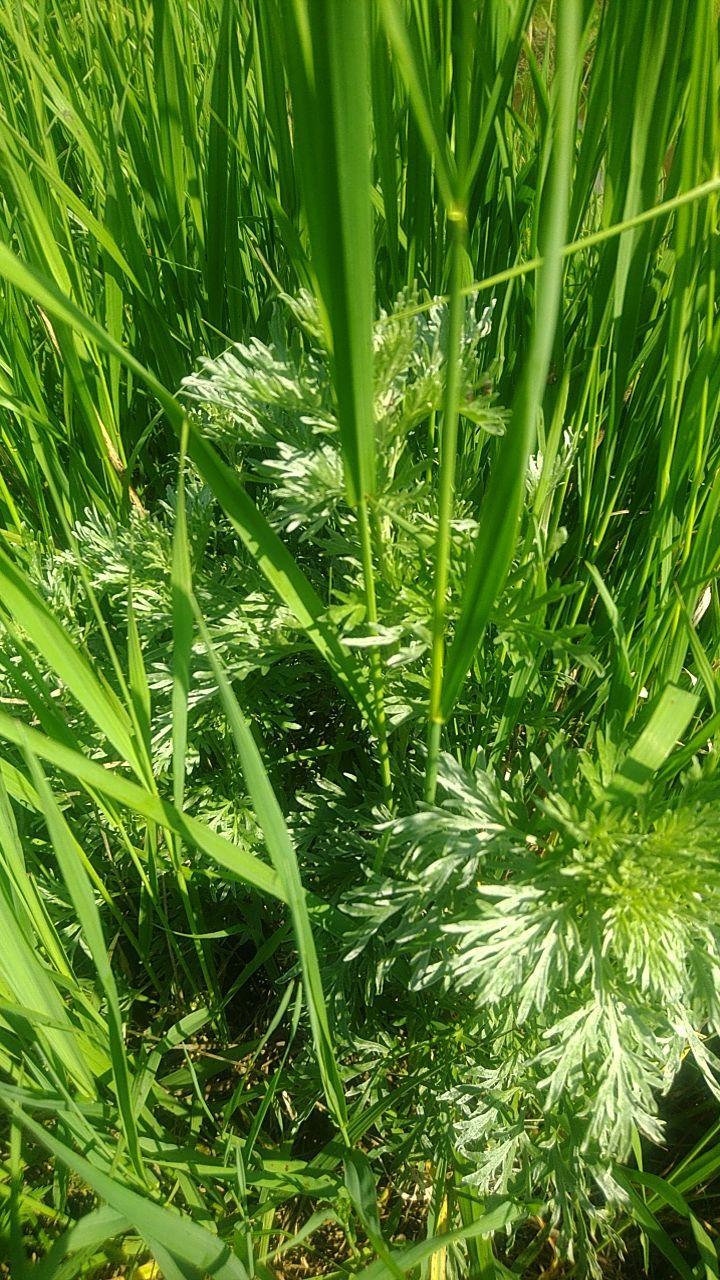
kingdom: Plantae
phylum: Tracheophyta
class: Magnoliopsida
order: Asterales
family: Asteraceae
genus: Artemisia
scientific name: Artemisia absinthium
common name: Wormwood
